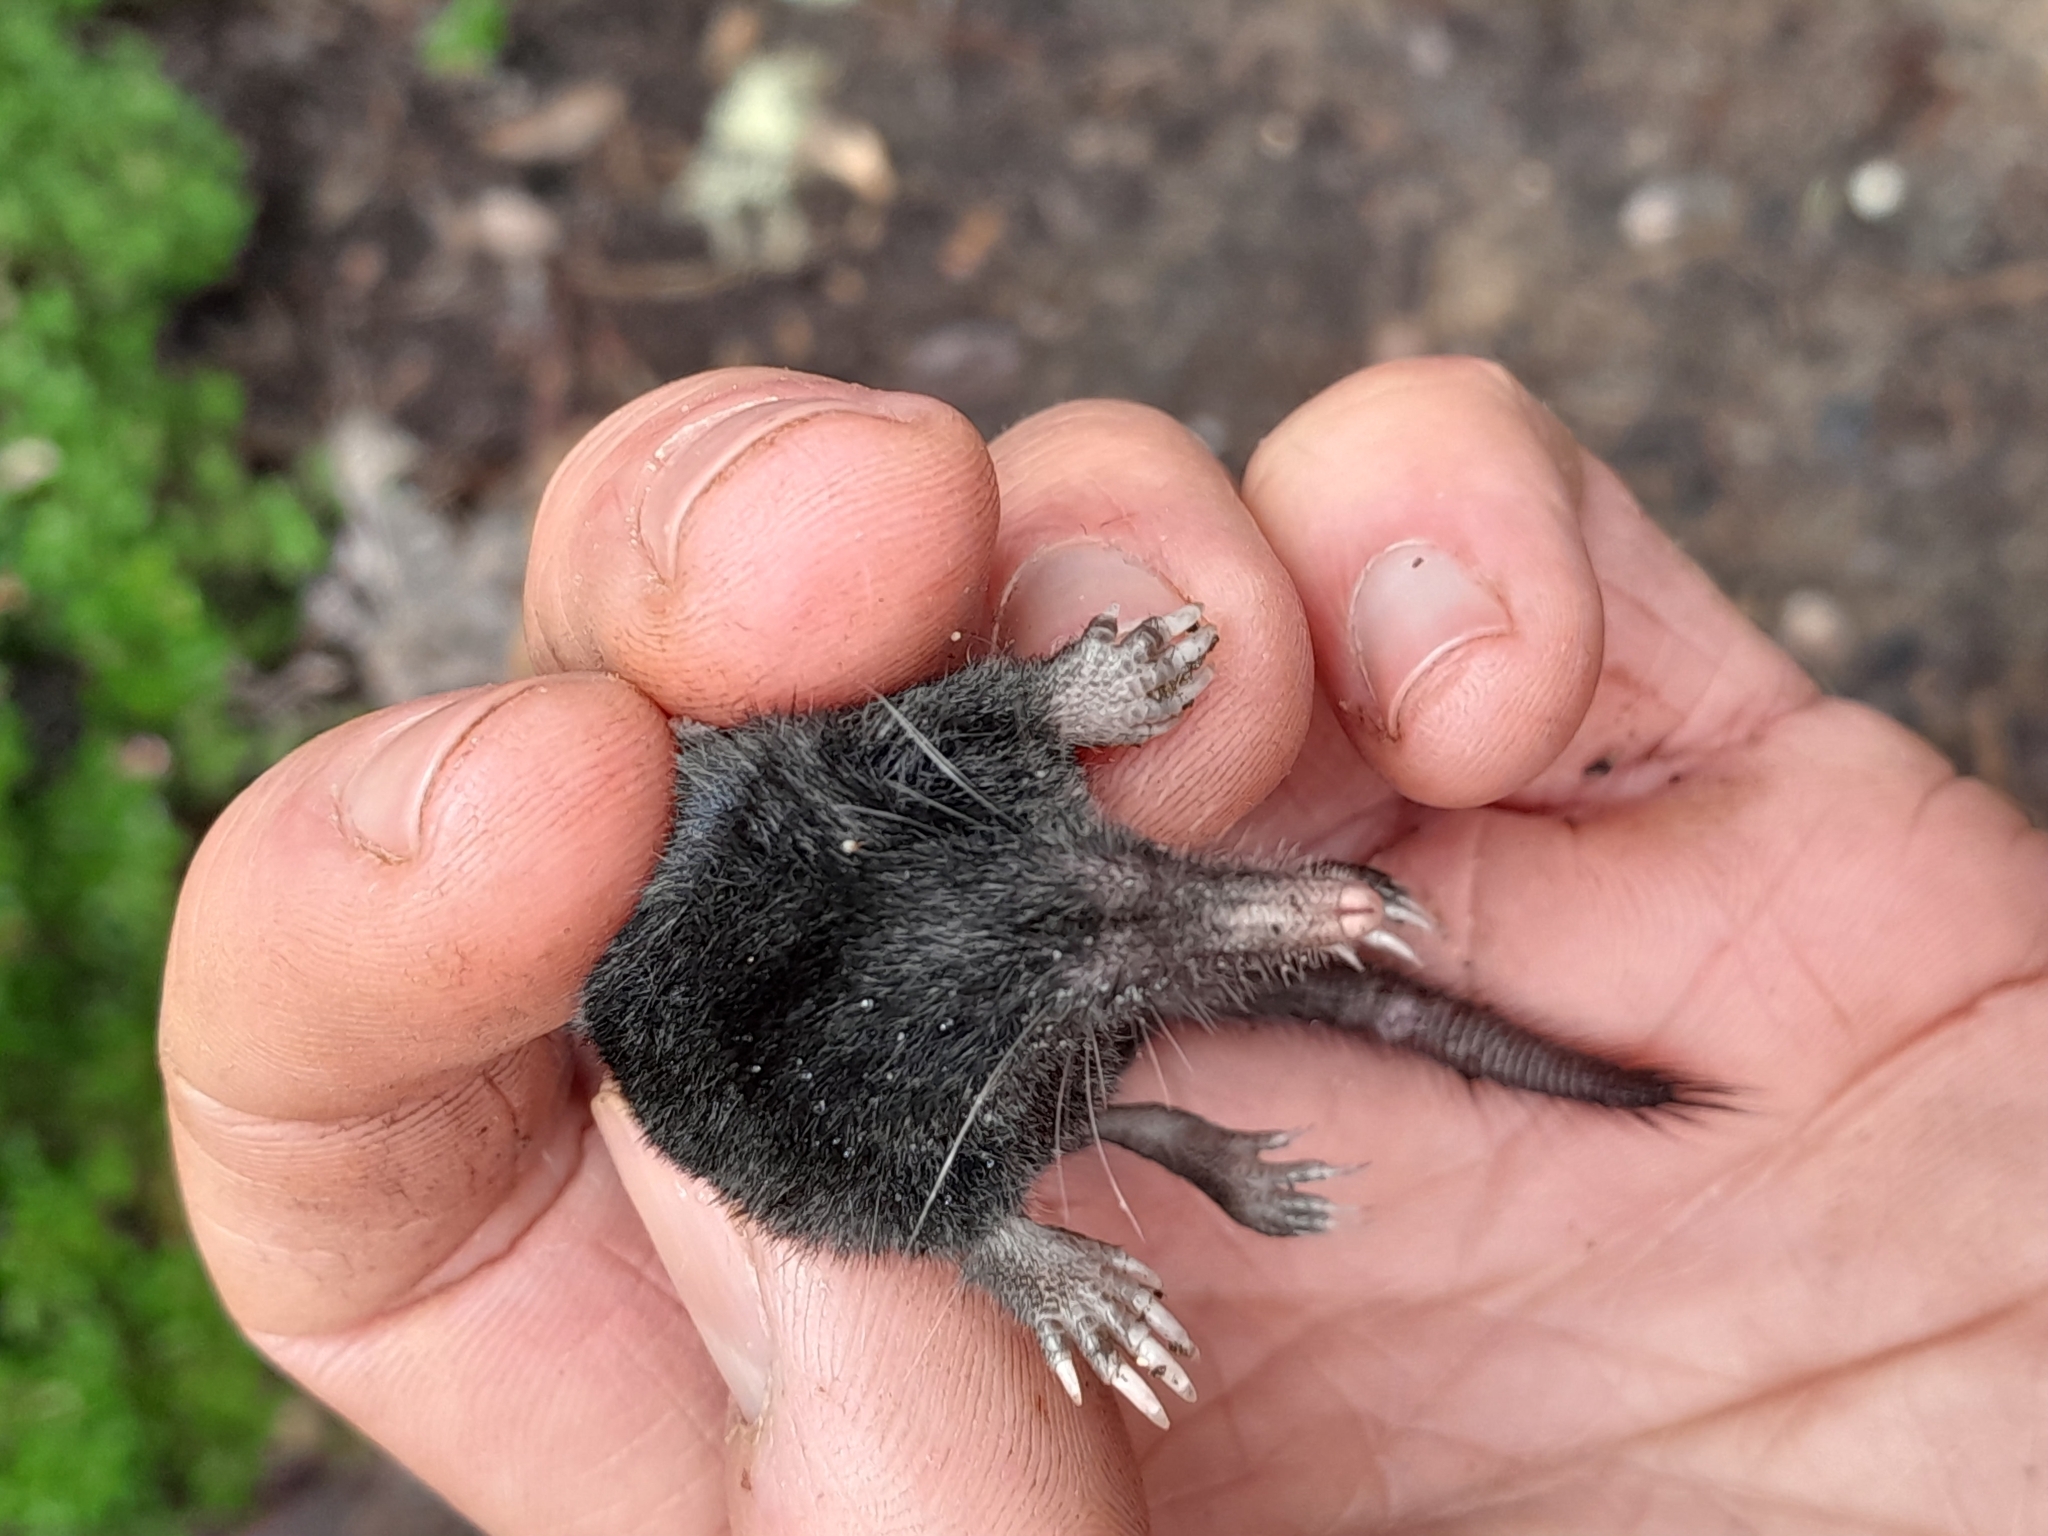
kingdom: Animalia
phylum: Chordata
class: Mammalia
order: Soricomorpha
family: Talpidae
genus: Neurotrichus
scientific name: Neurotrichus gibbsii
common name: American shrew mole
